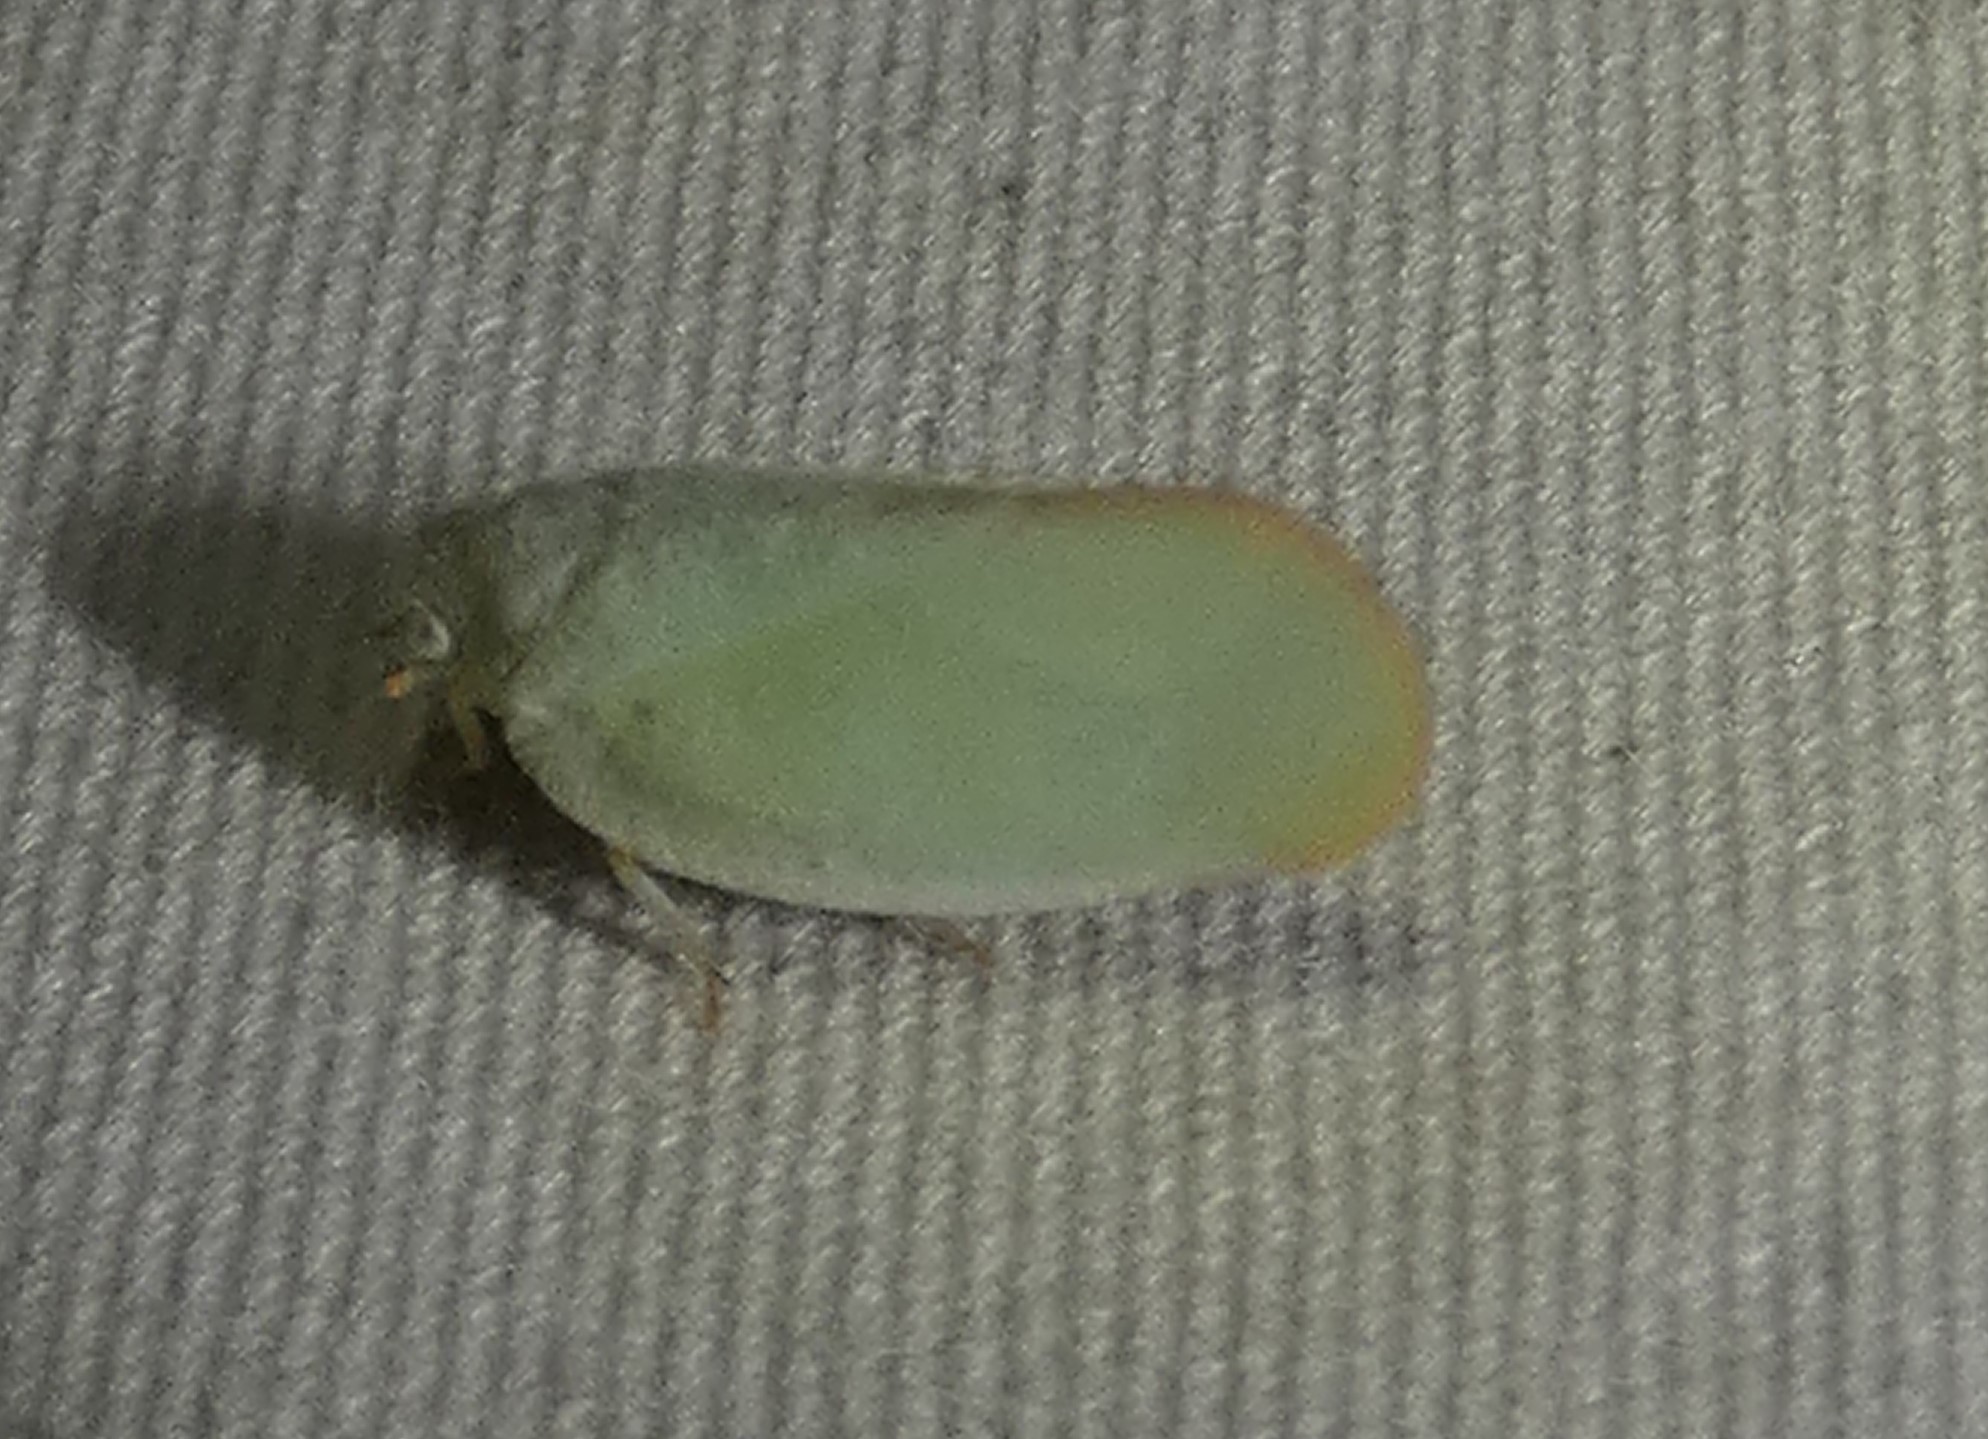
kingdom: Animalia
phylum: Arthropoda
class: Insecta
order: Hemiptera
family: Flatidae
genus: Ormenoides
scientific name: Ormenoides venusta
